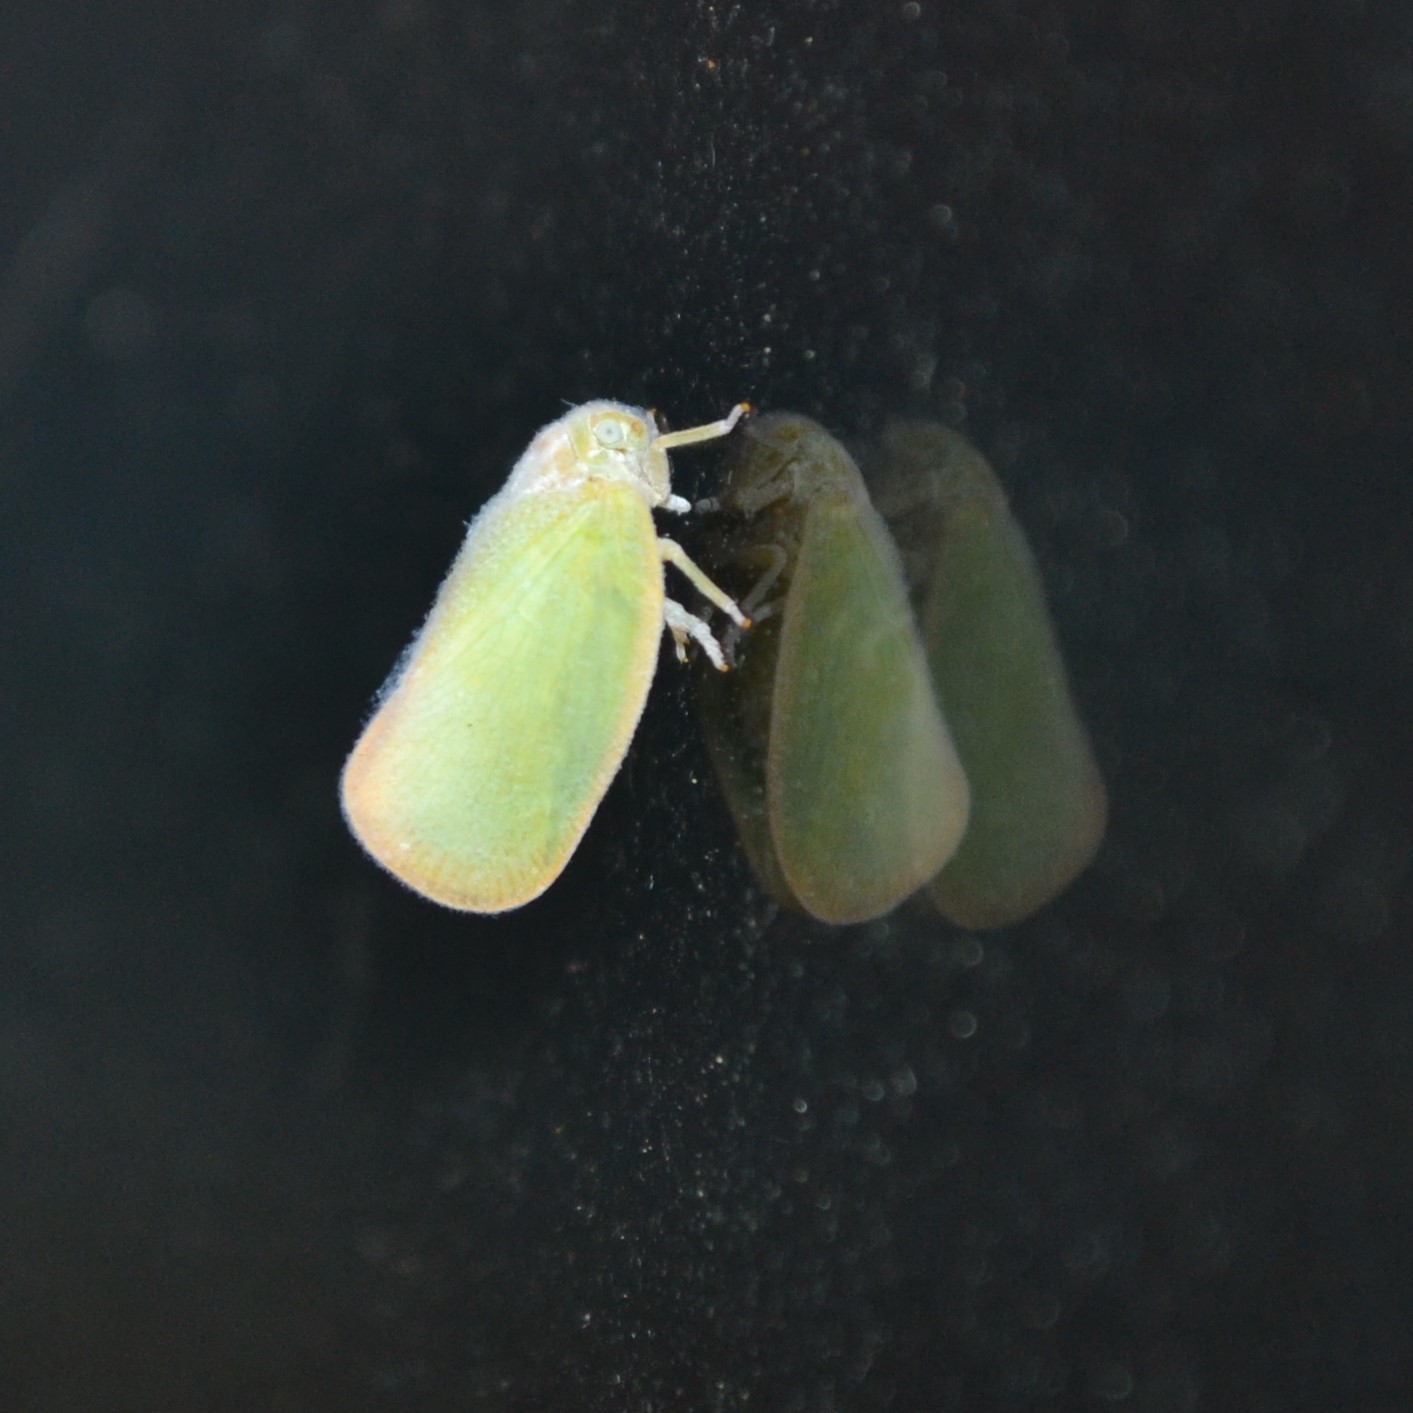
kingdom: Animalia
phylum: Arthropoda
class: Insecta
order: Hemiptera
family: Flatidae
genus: Ormenoides
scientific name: Ormenoides venusta
